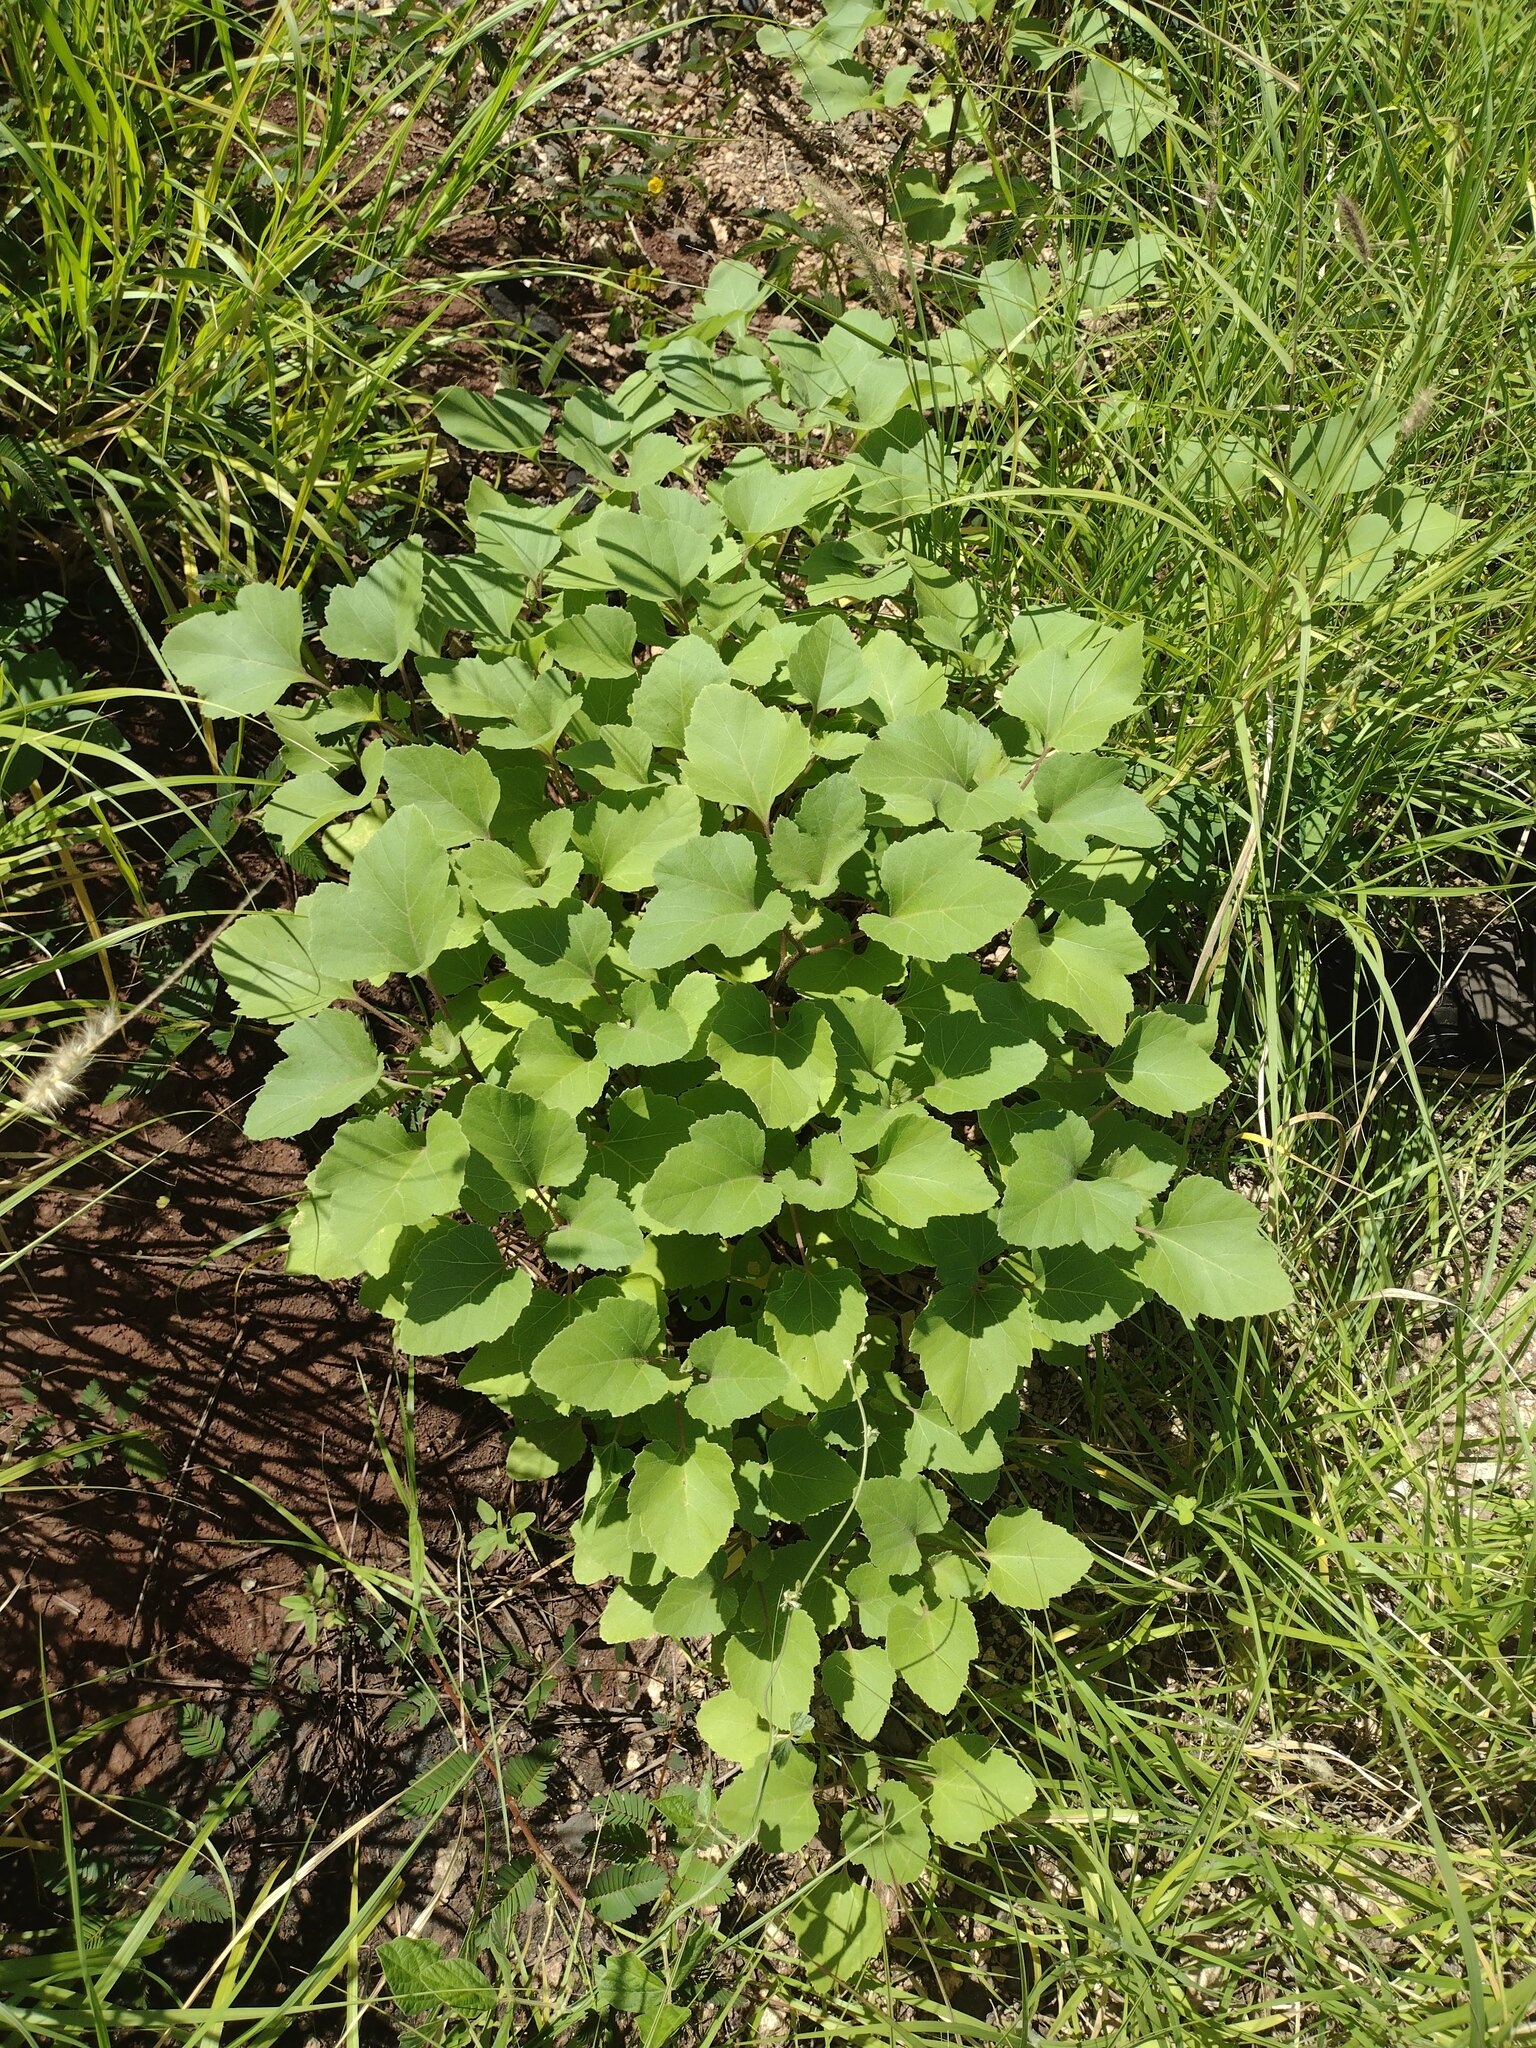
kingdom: Plantae
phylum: Tracheophyta
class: Magnoliopsida
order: Asterales
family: Asteraceae
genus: Xanthium
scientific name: Xanthium strumarium
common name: Rough cocklebur
